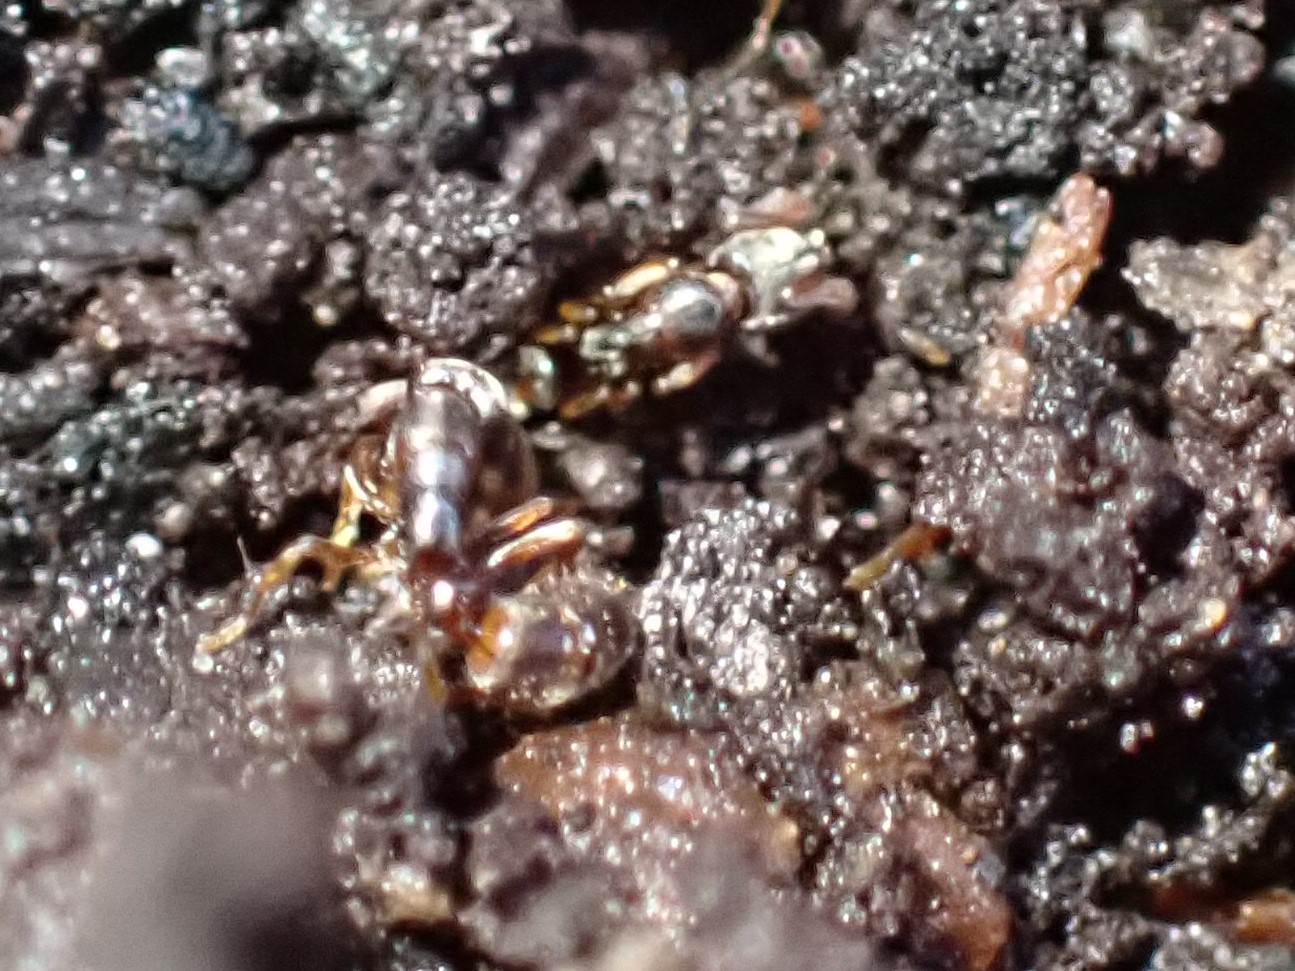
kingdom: Animalia
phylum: Arthropoda
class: Insecta
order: Hymenoptera
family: Formicidae
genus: Ponera
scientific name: Ponera pennsylvanica
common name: Pennsylvania ponera
